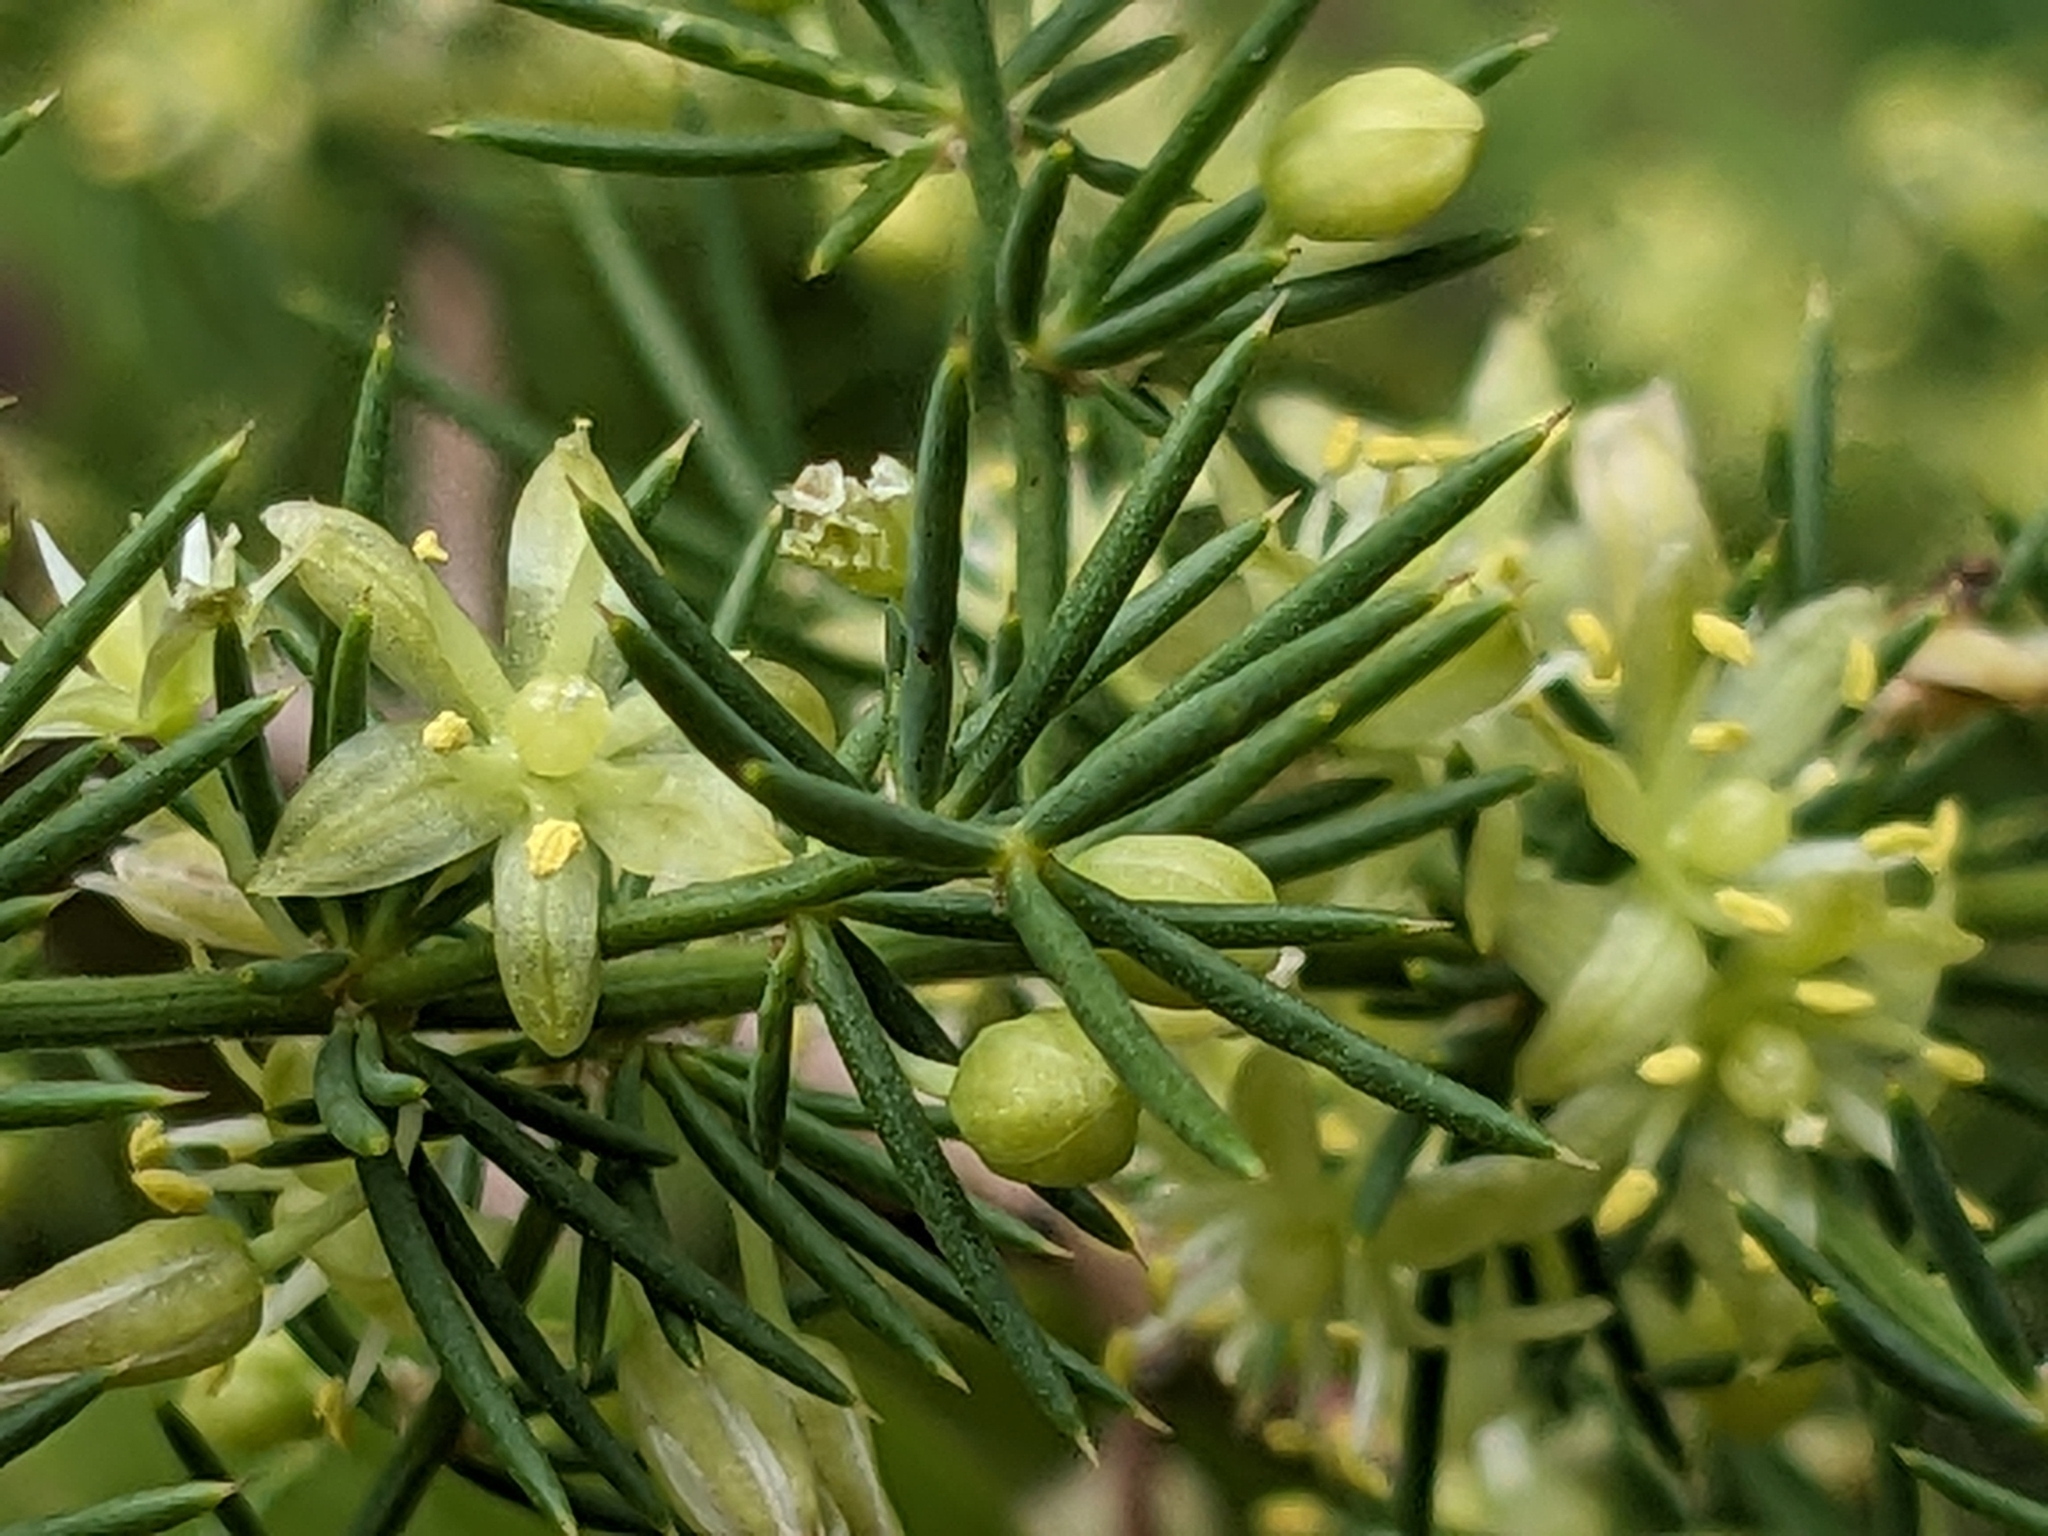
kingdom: Plantae
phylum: Tracheophyta
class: Liliopsida
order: Asparagales
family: Asparagaceae
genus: Asparagus
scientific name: Asparagus acutifolius
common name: Wild asparagus
